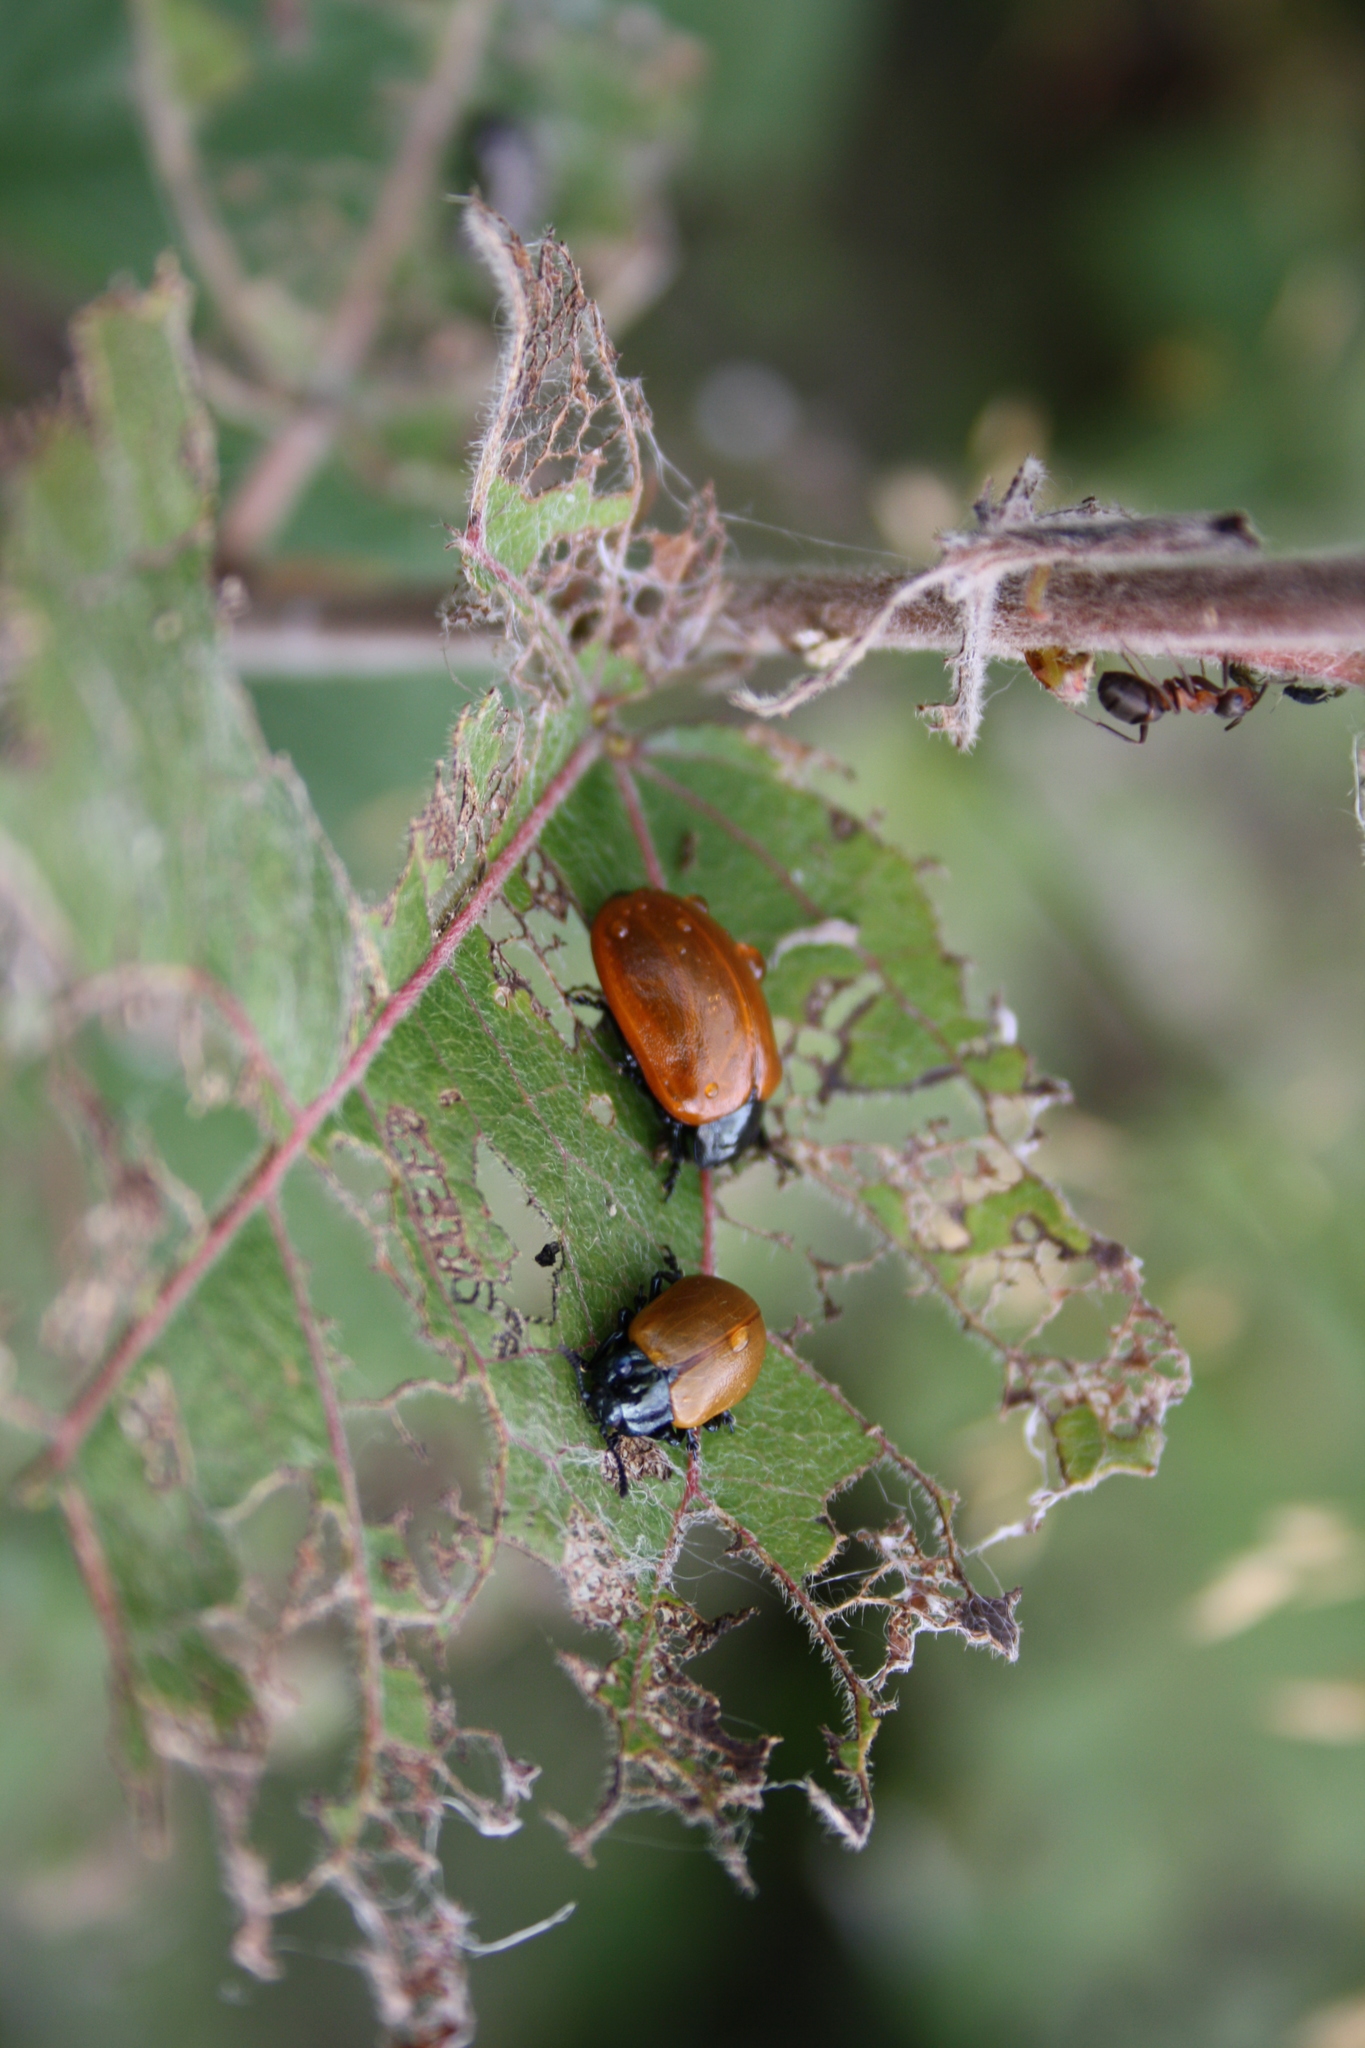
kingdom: Animalia
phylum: Arthropoda
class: Insecta
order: Coleoptera
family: Chrysomelidae
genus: Chrysomela
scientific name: Chrysomela populi
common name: Red poplar leaf beetle
